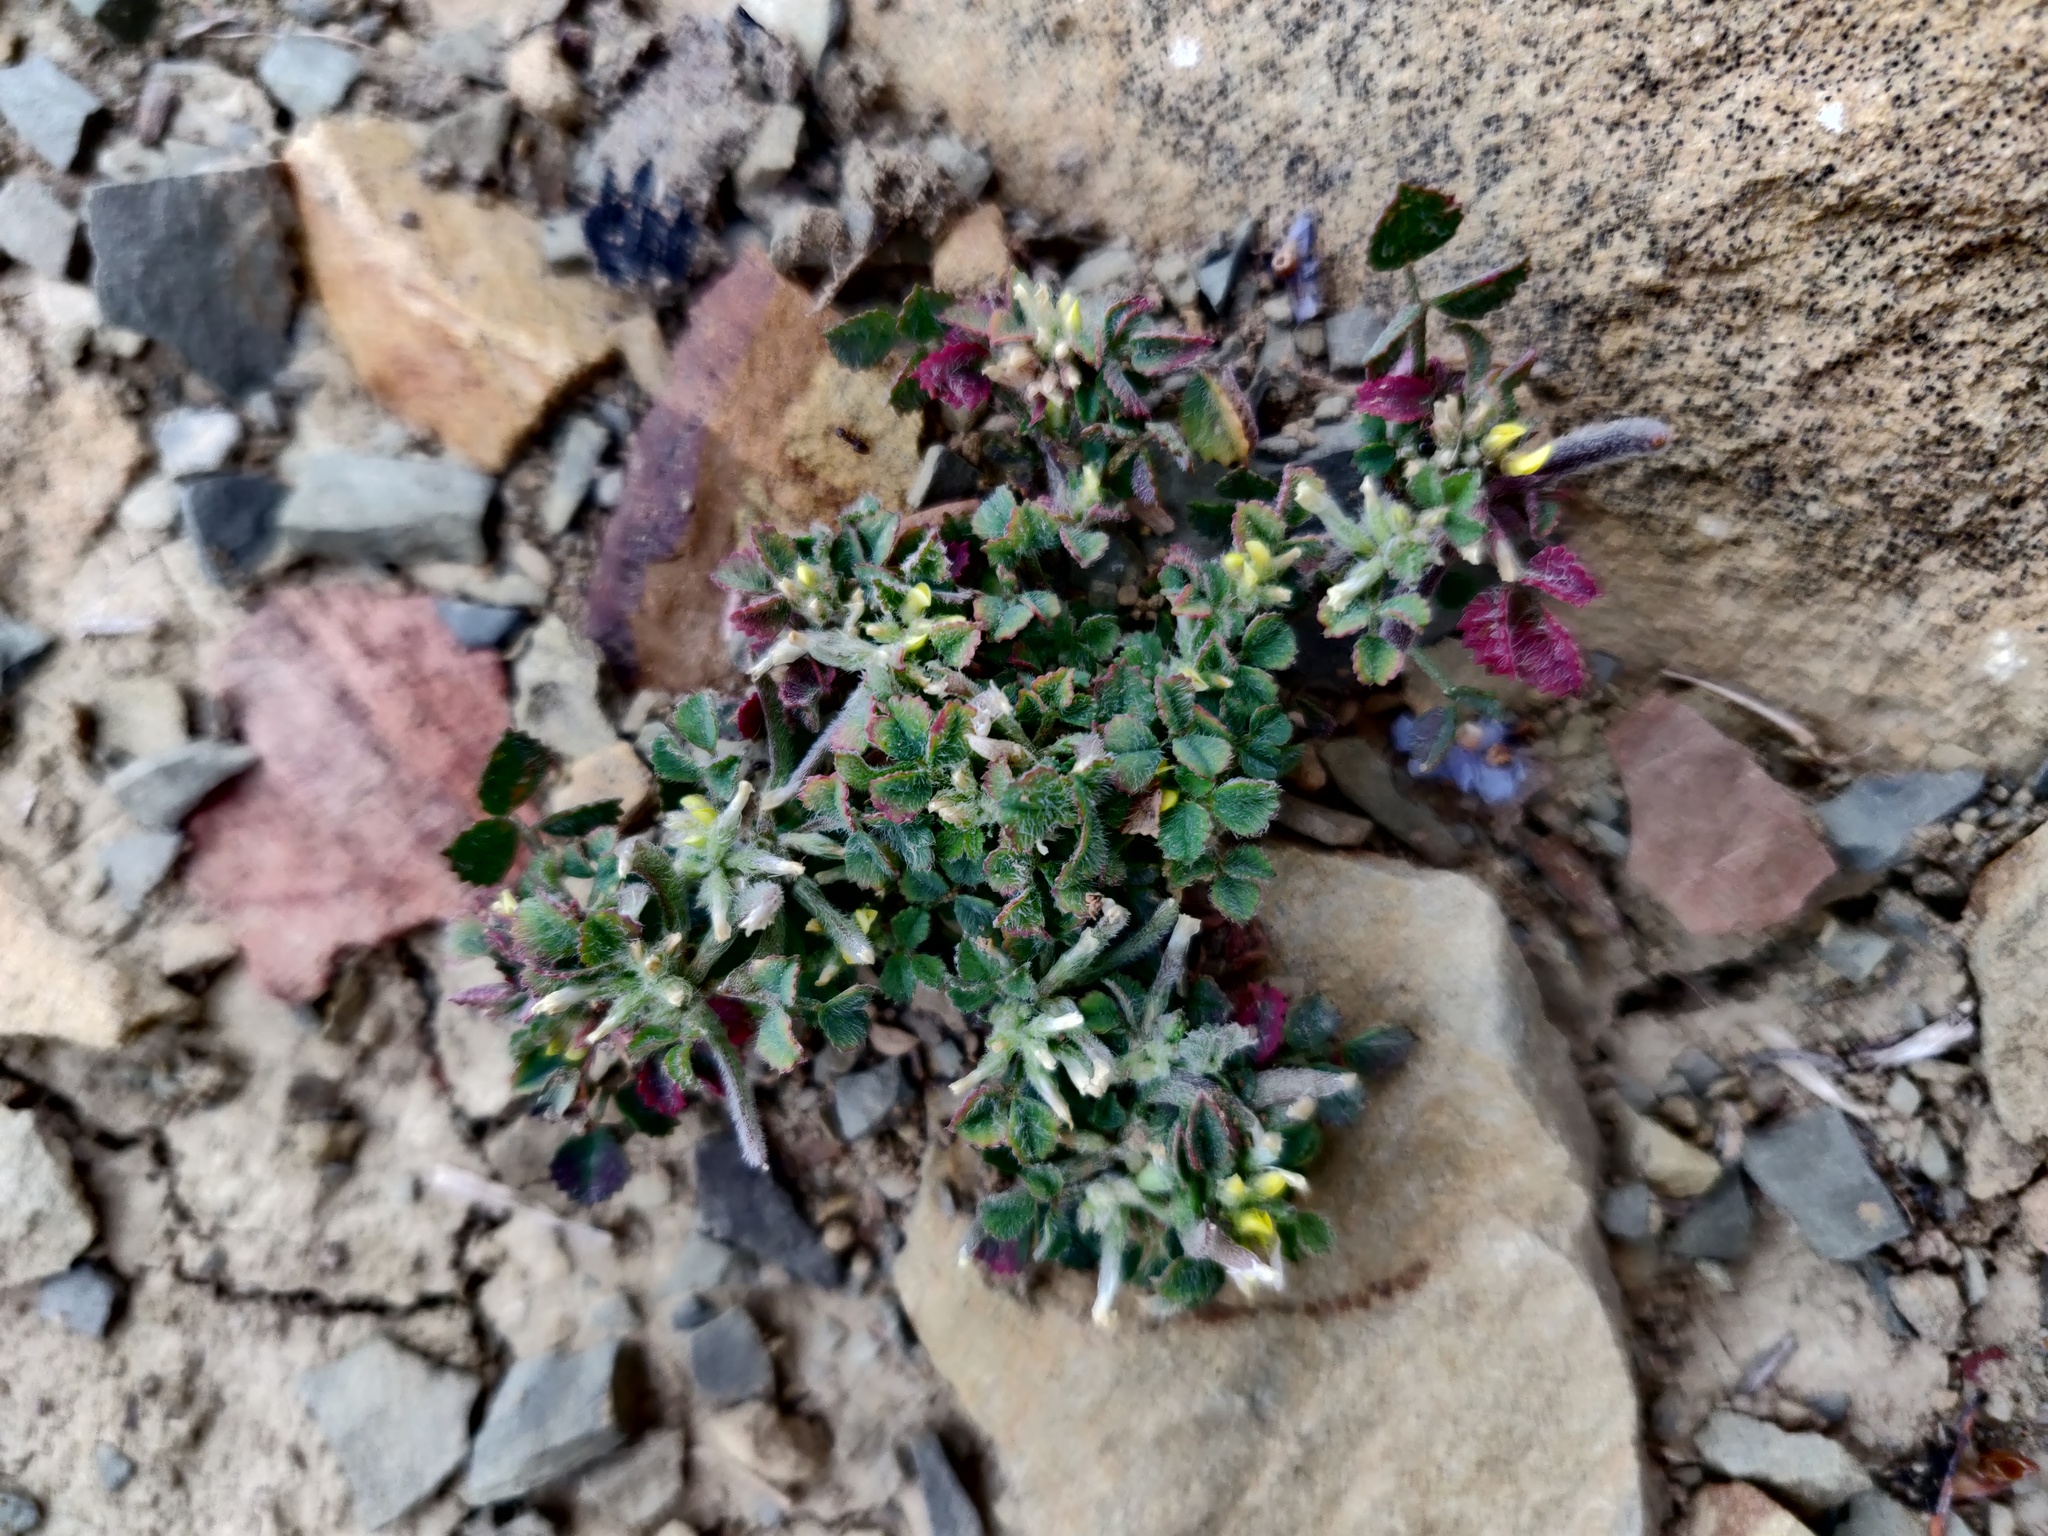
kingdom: Plantae
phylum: Tracheophyta
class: Magnoliopsida
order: Fabales
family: Fabaceae
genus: Medicago
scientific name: Medicago monspeliaca
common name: Hairy medick
